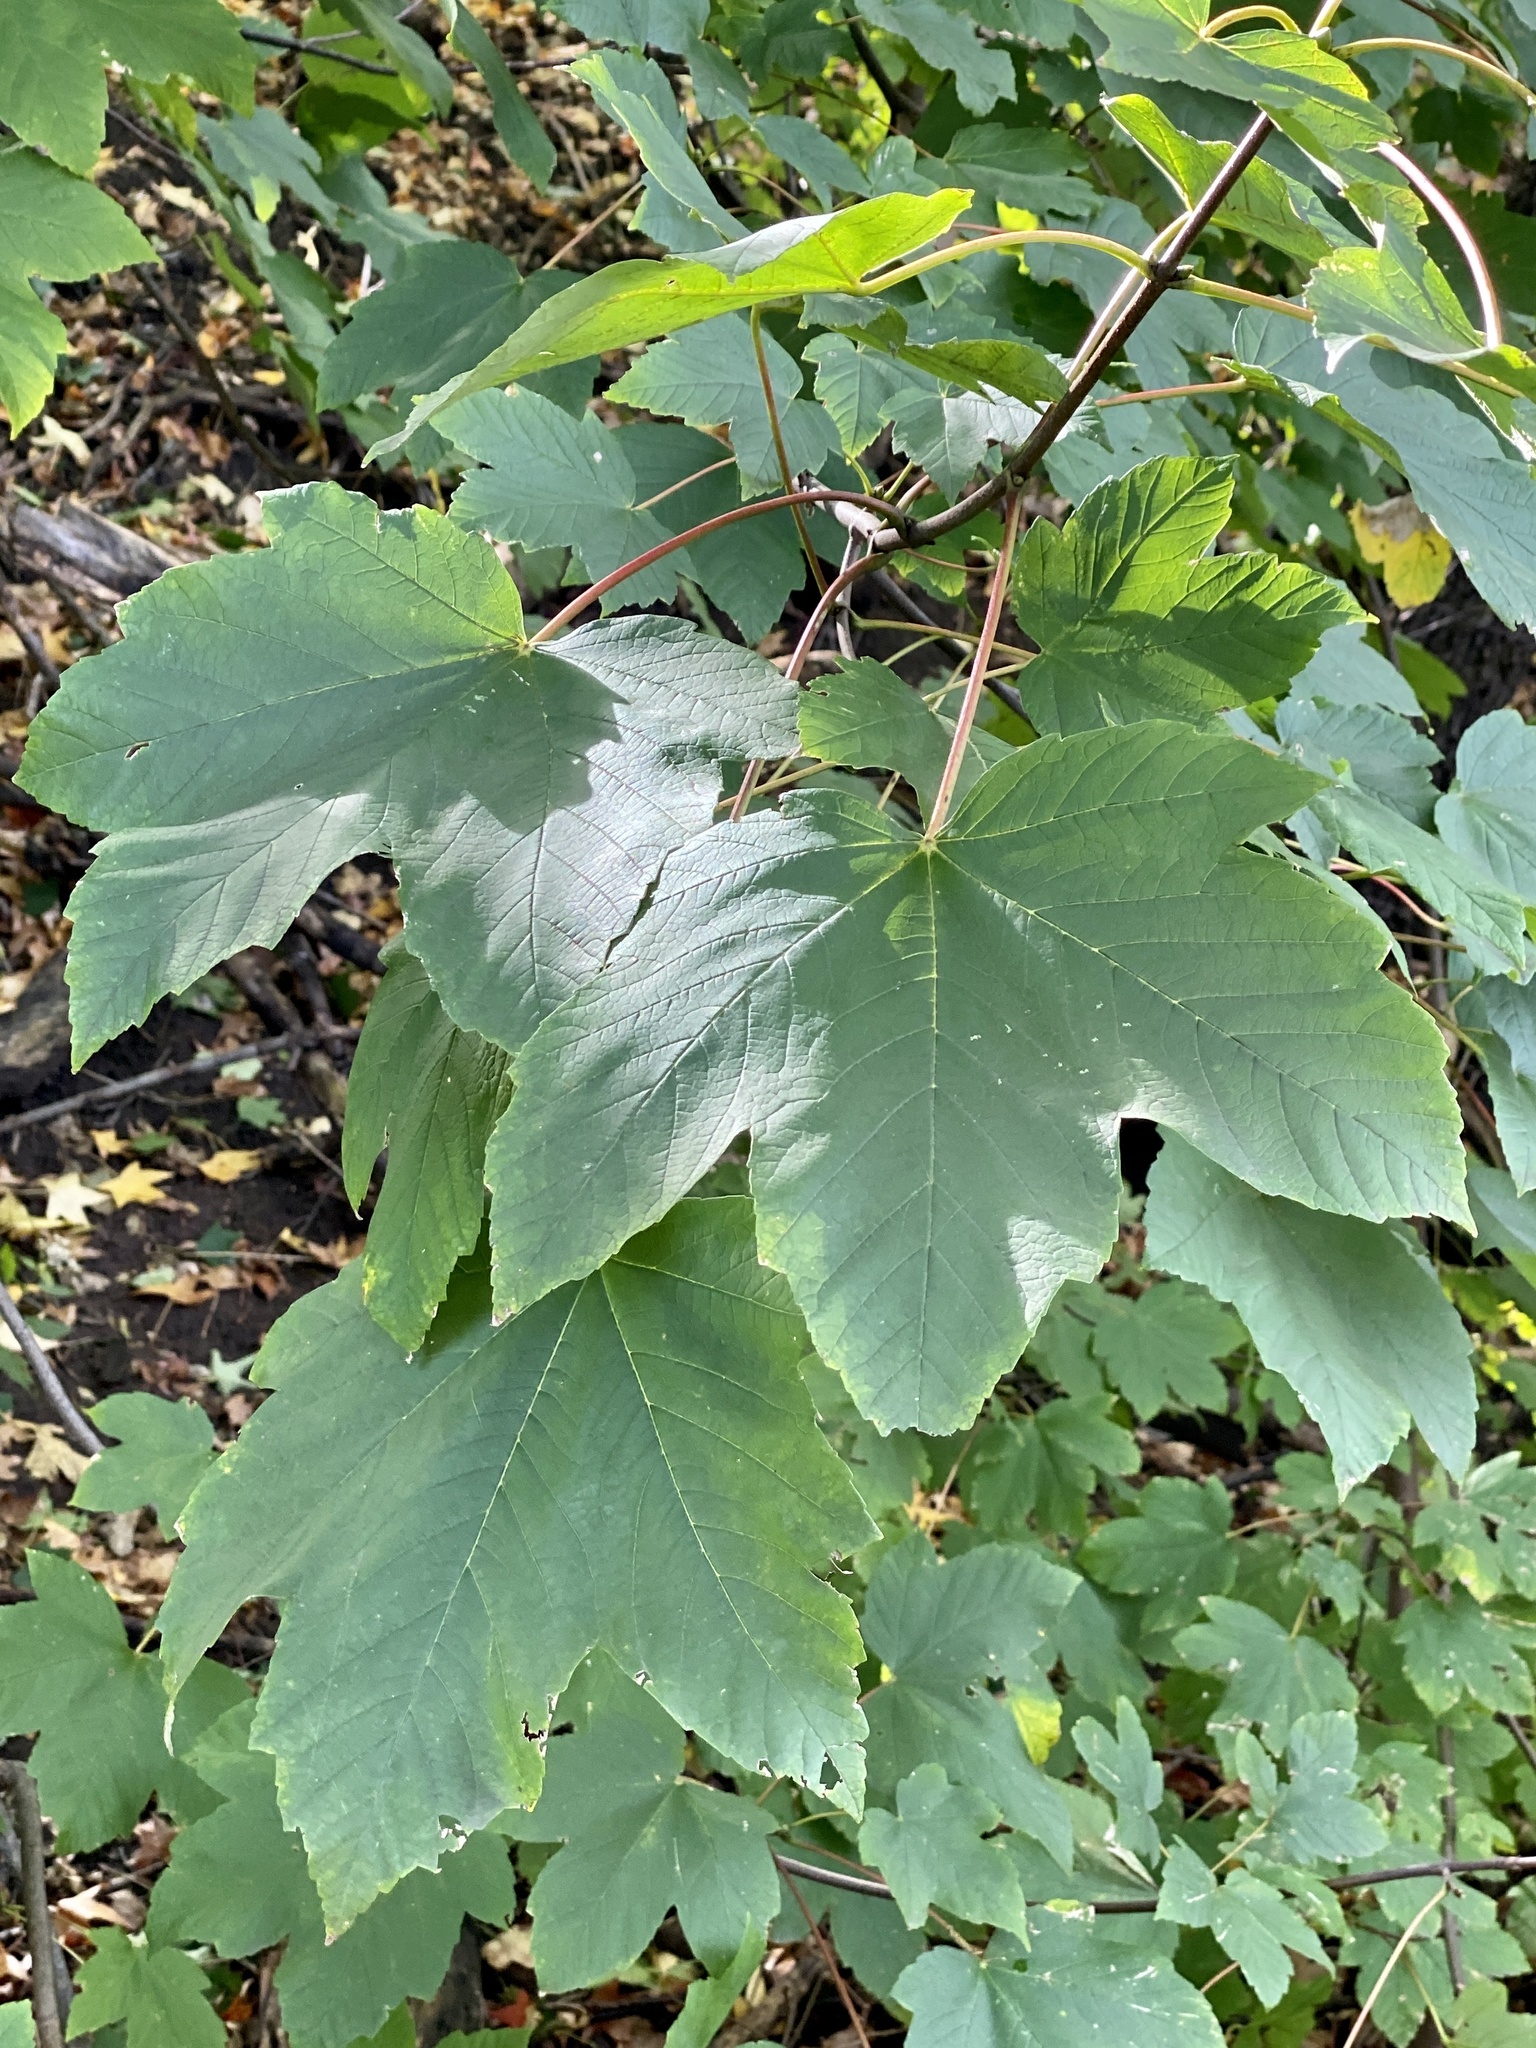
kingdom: Plantae
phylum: Tracheophyta
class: Magnoliopsida
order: Sapindales
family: Sapindaceae
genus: Acer
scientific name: Acer pseudoplatanus
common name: Sycamore
